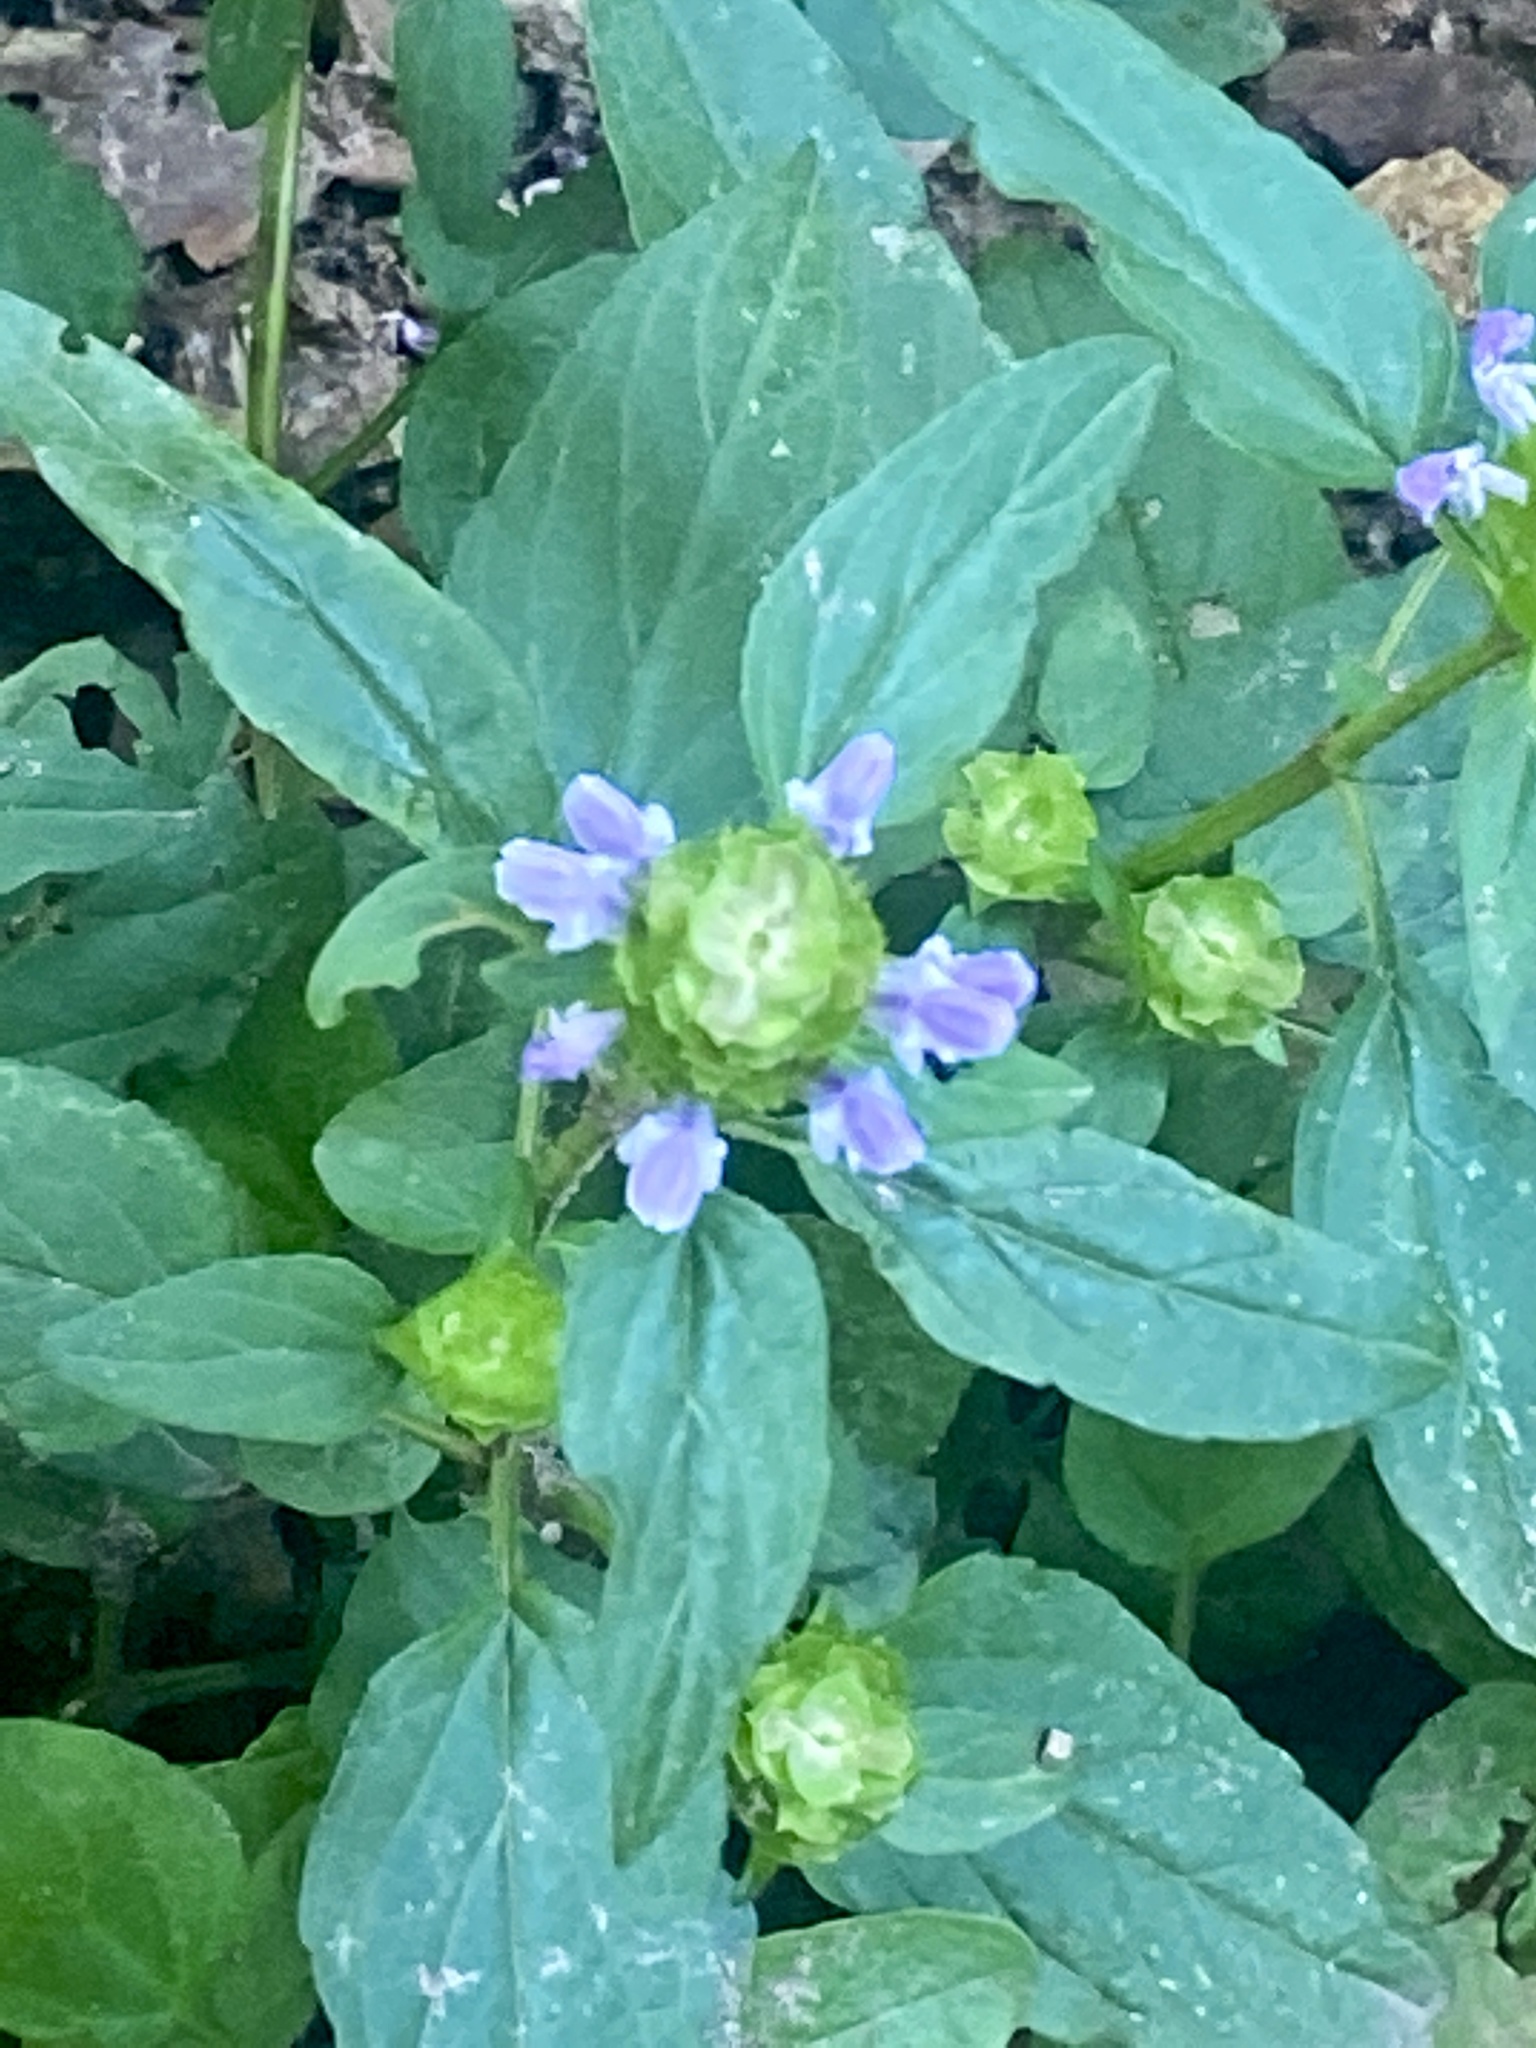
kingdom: Plantae
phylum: Tracheophyta
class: Magnoliopsida
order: Lamiales
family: Lamiaceae
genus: Prunella
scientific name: Prunella vulgaris
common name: Heal-all
